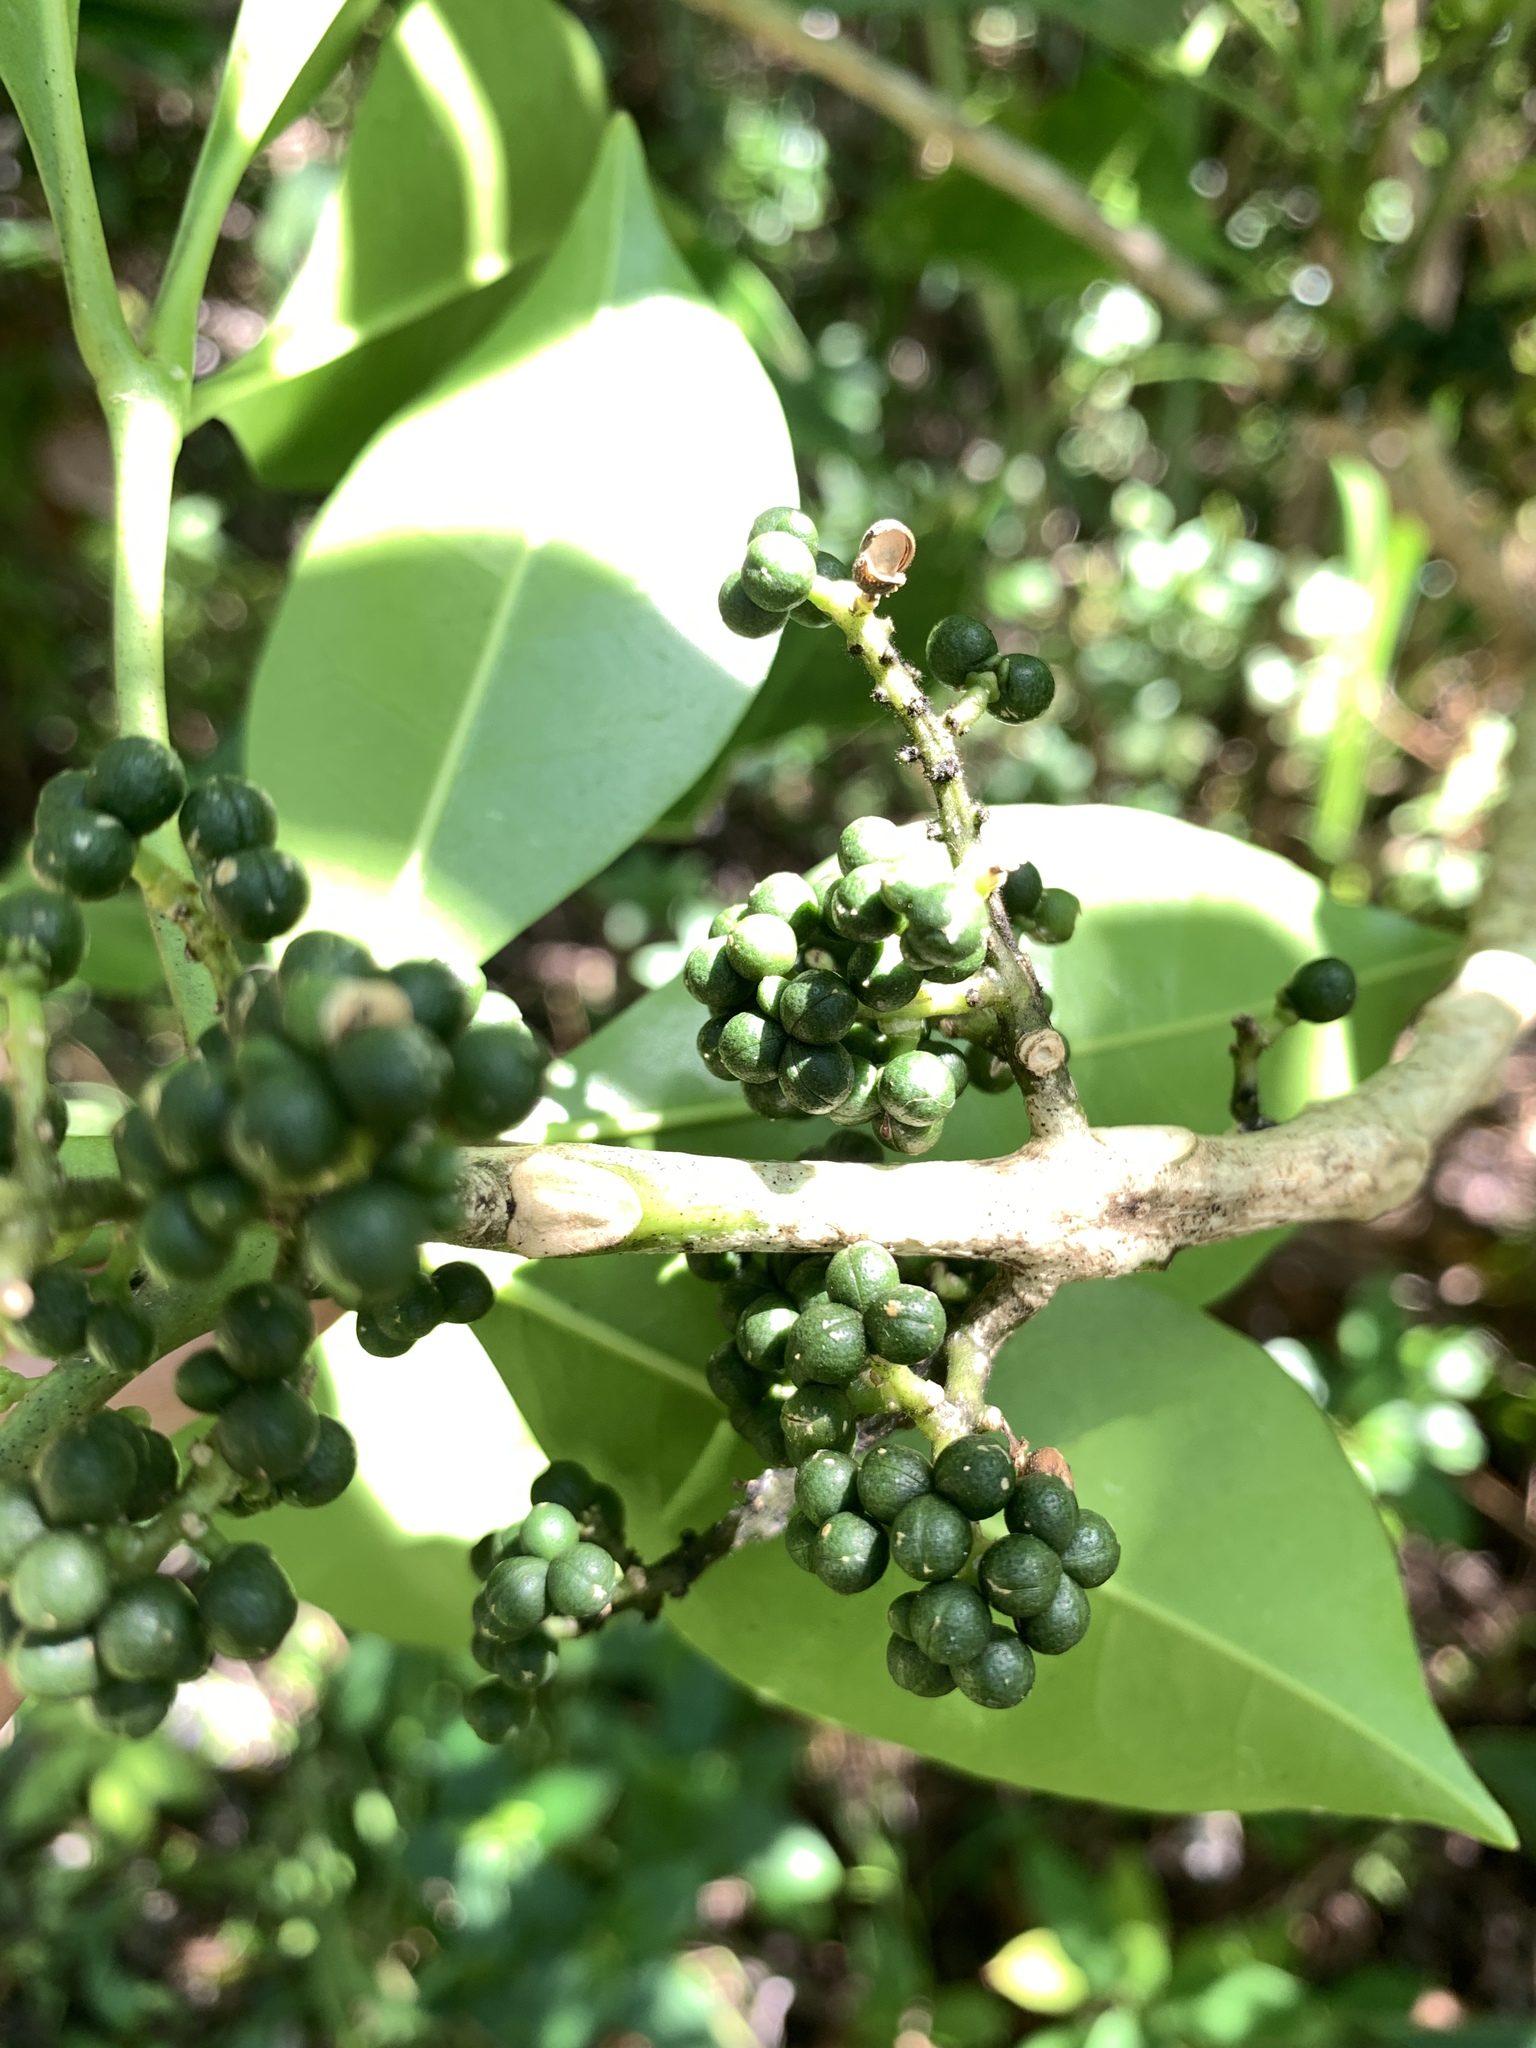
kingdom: Plantae
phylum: Tracheophyta
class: Magnoliopsida
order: Sapindales
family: Rutaceae
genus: Melicope
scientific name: Melicope triphylla
